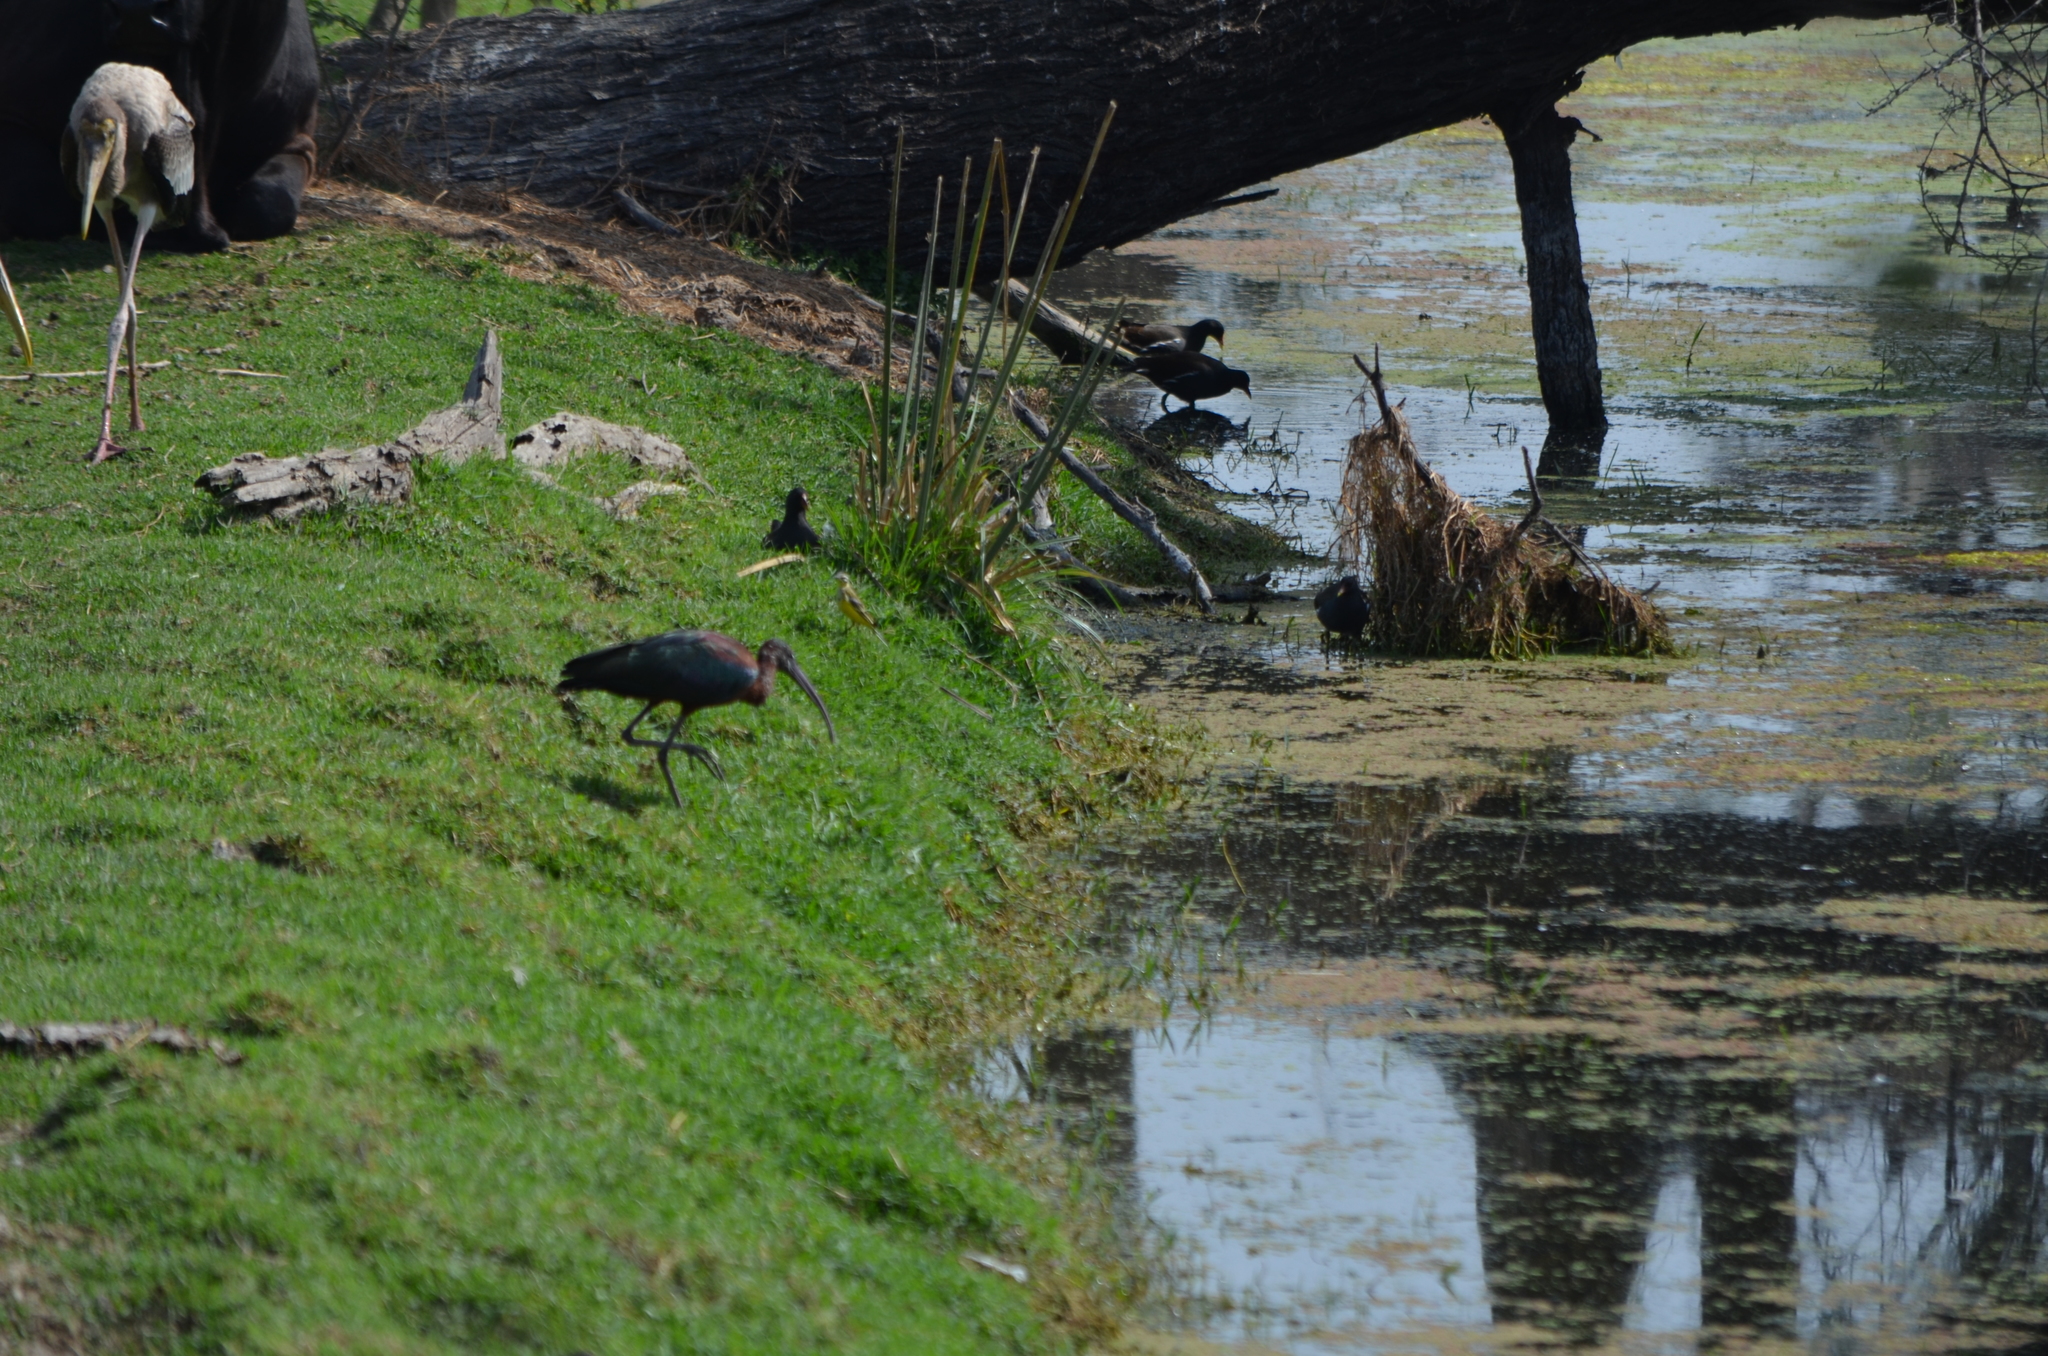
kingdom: Animalia
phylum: Chordata
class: Aves
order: Pelecaniformes
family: Threskiornithidae
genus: Plegadis
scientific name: Plegadis falcinellus
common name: Glossy ibis
